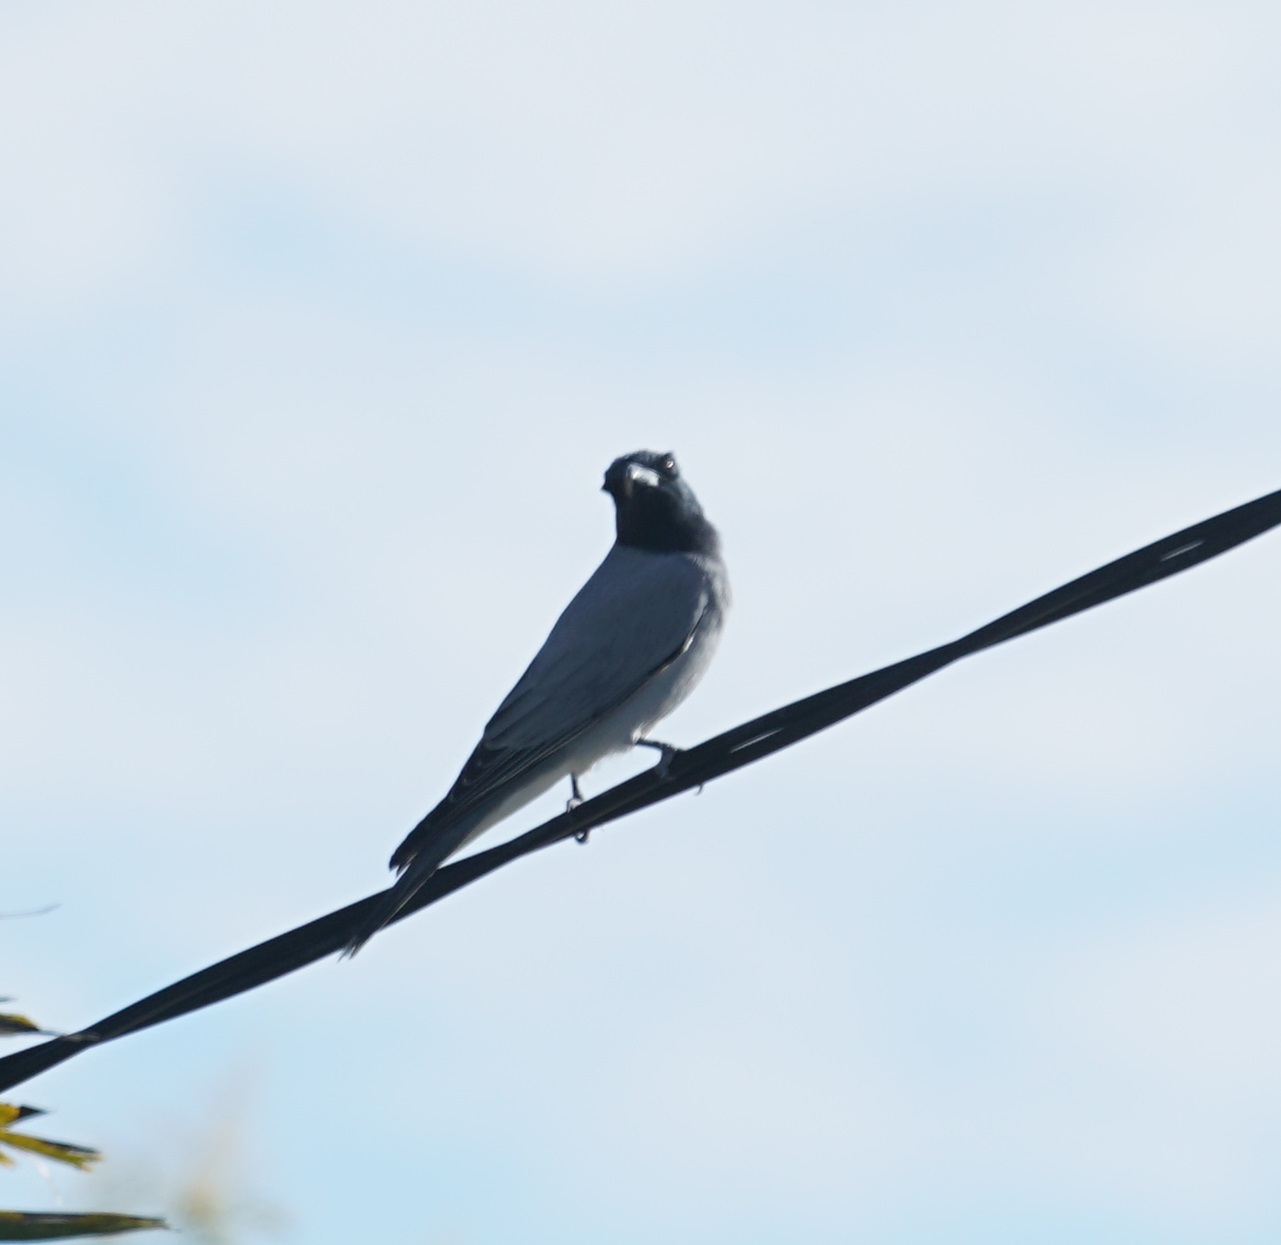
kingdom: Animalia
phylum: Chordata
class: Aves
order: Passeriformes
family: Campephagidae
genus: Coracina
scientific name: Coracina novaehollandiae
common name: Black-faced cuckooshrike
